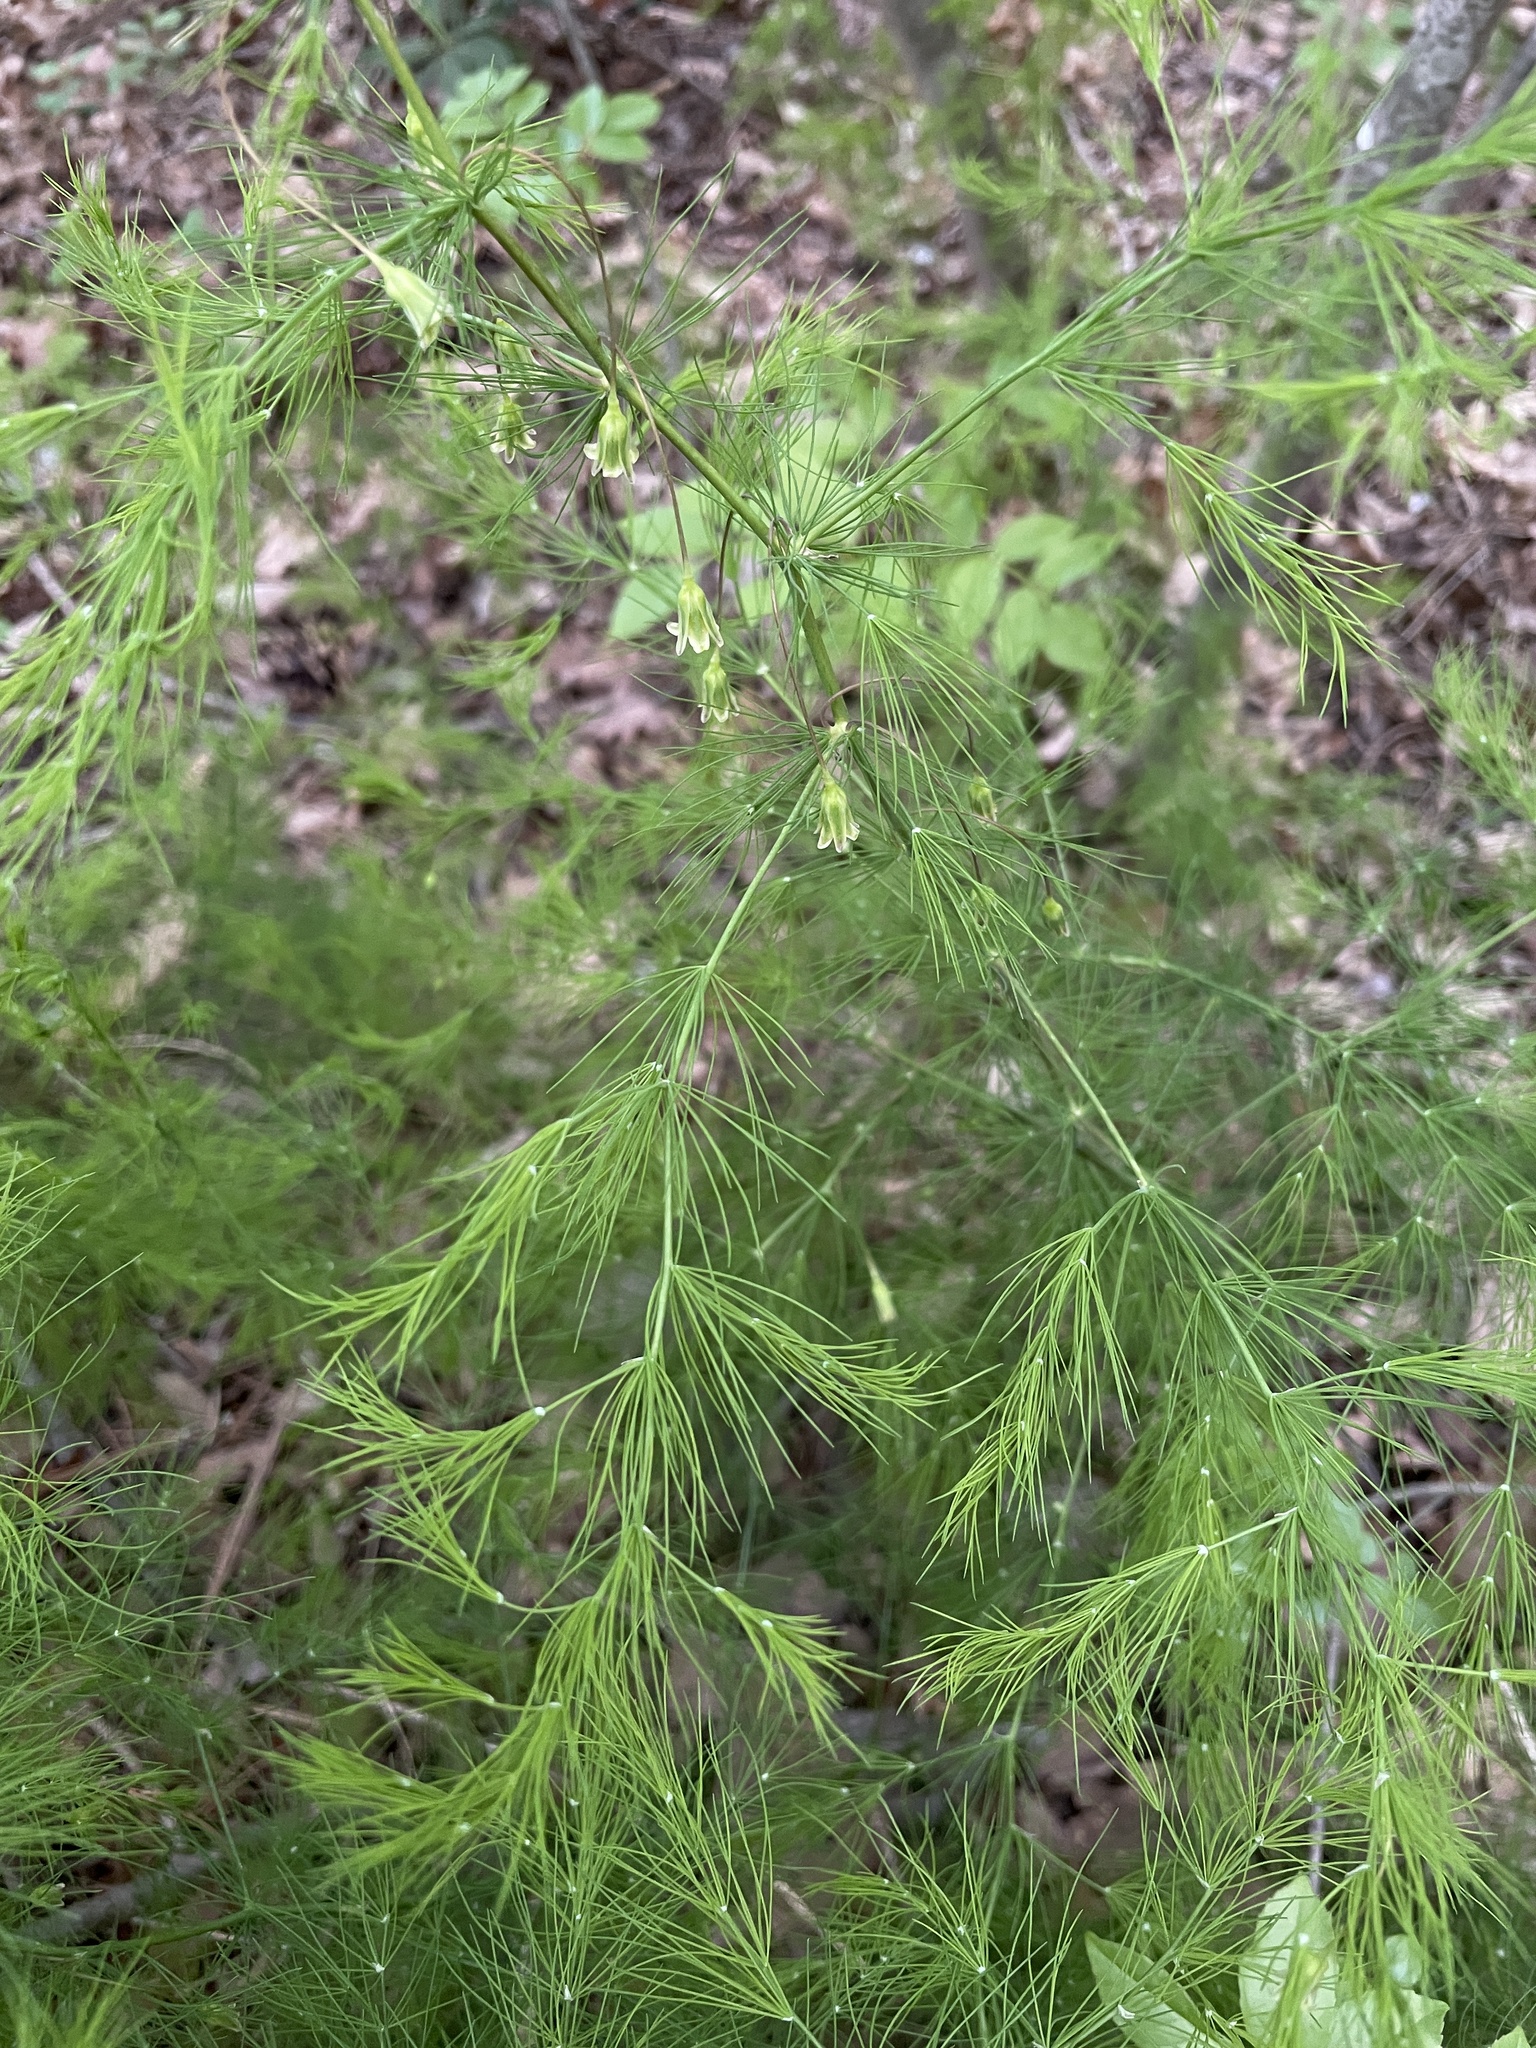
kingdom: Plantae
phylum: Tracheophyta
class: Liliopsida
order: Asparagales
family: Asparagaceae
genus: Asparagus
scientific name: Asparagus tenuifolius
